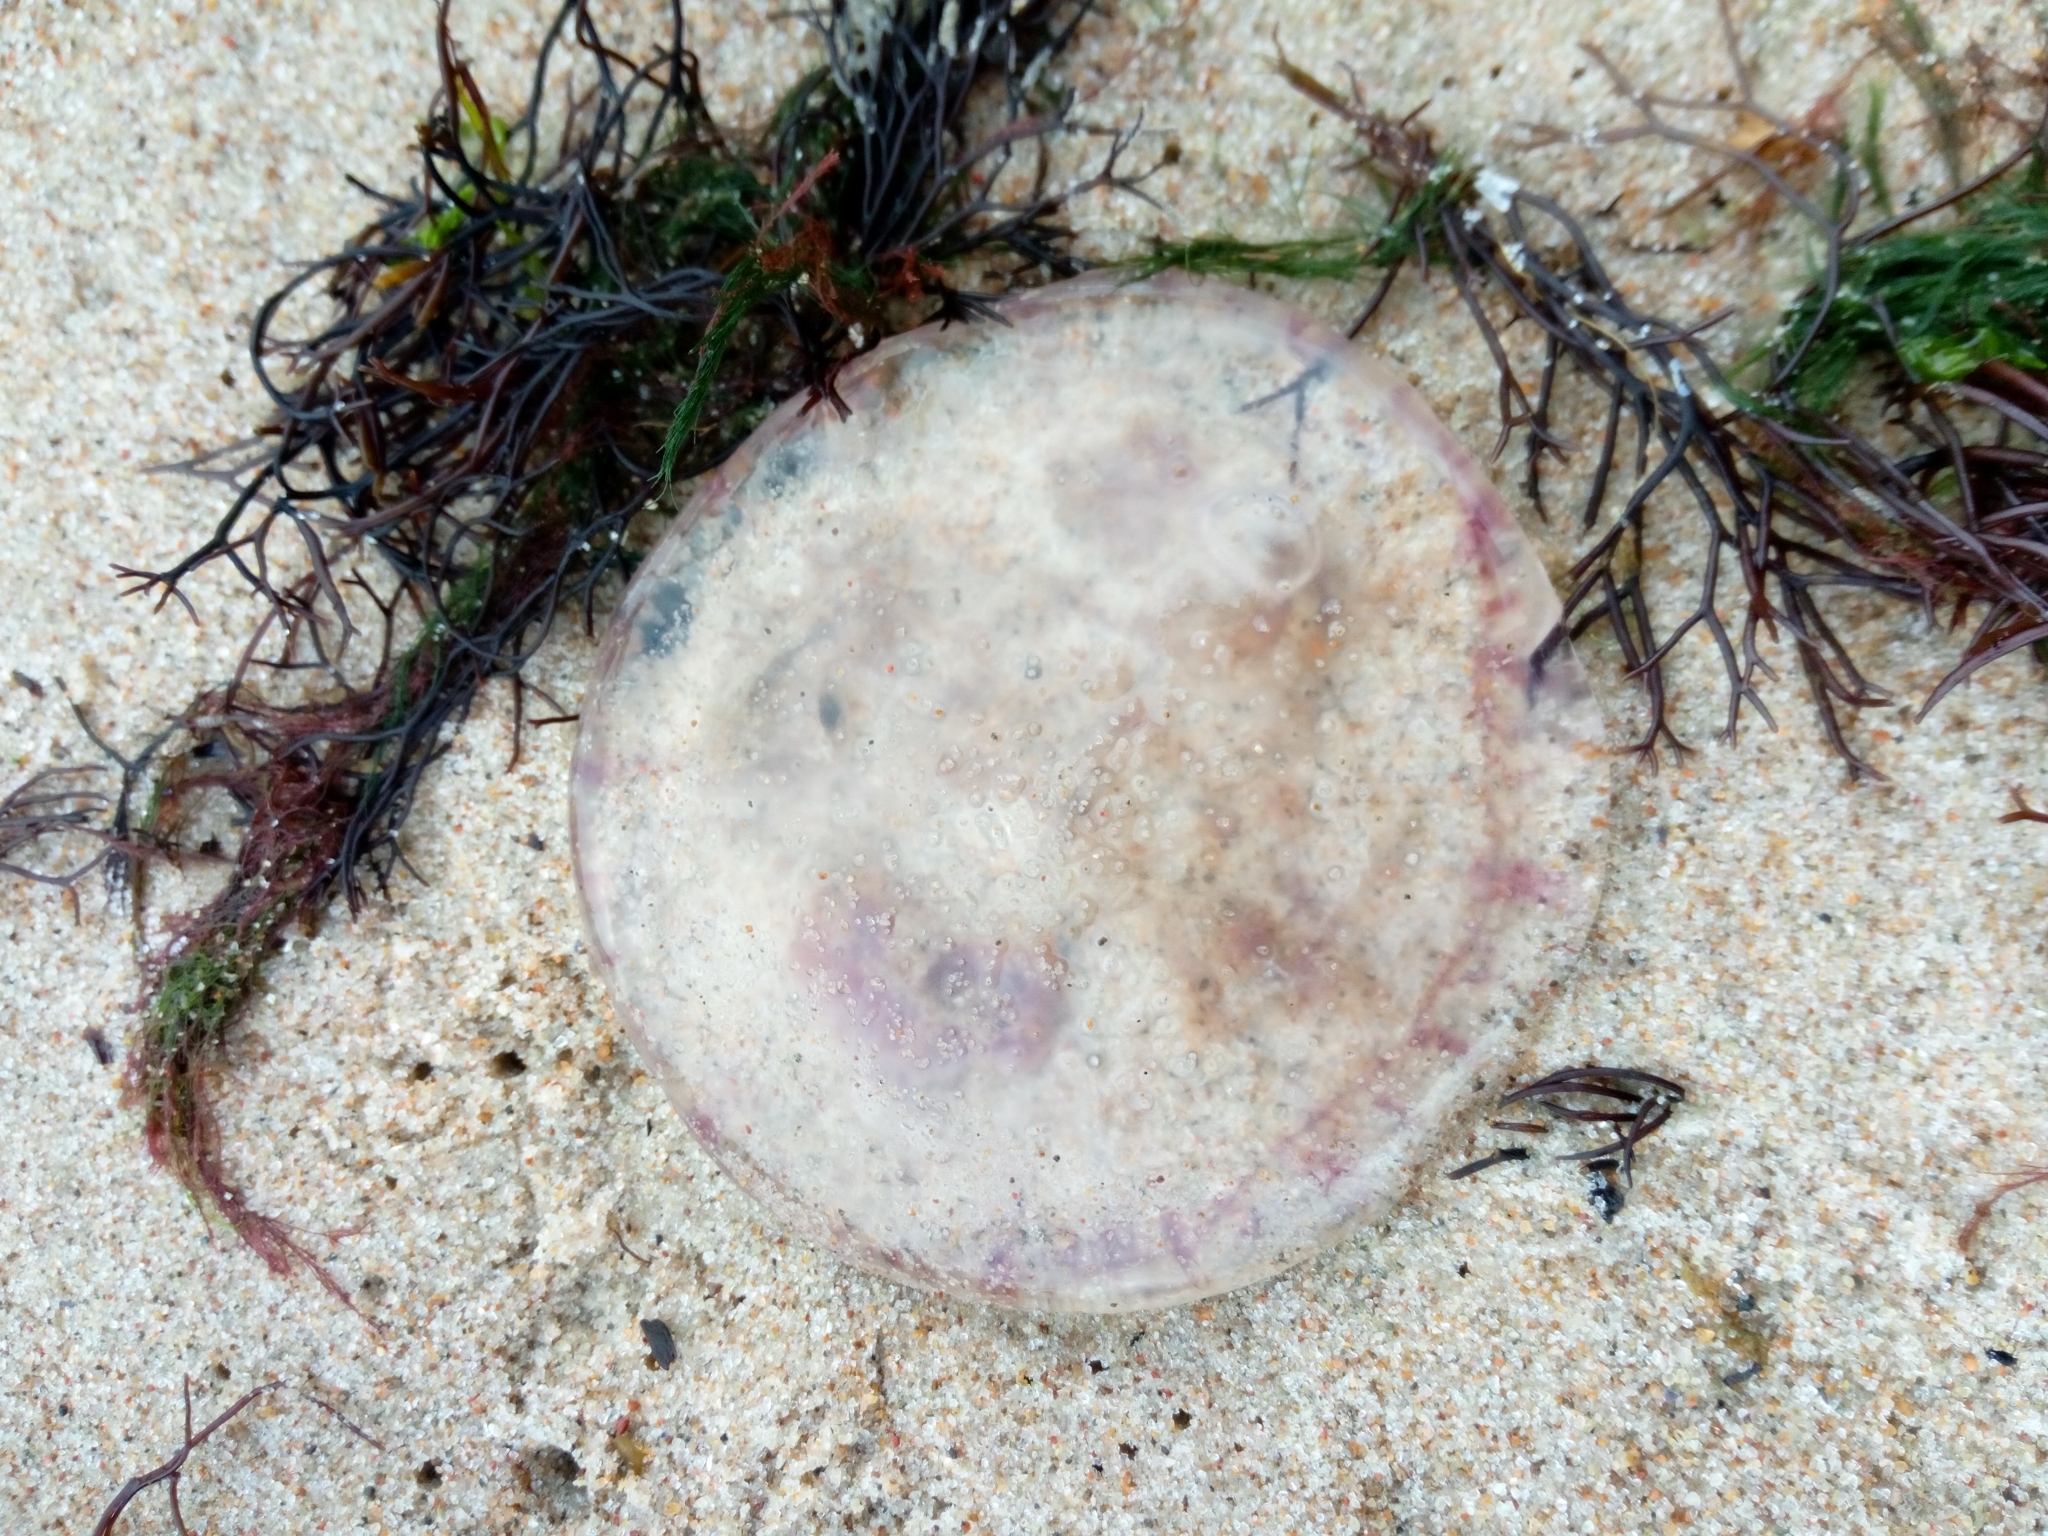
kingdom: Animalia
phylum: Cnidaria
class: Scyphozoa
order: Semaeostomeae
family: Ulmaridae
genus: Aurelia
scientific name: Aurelia aurita
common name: Moon jellyfish
